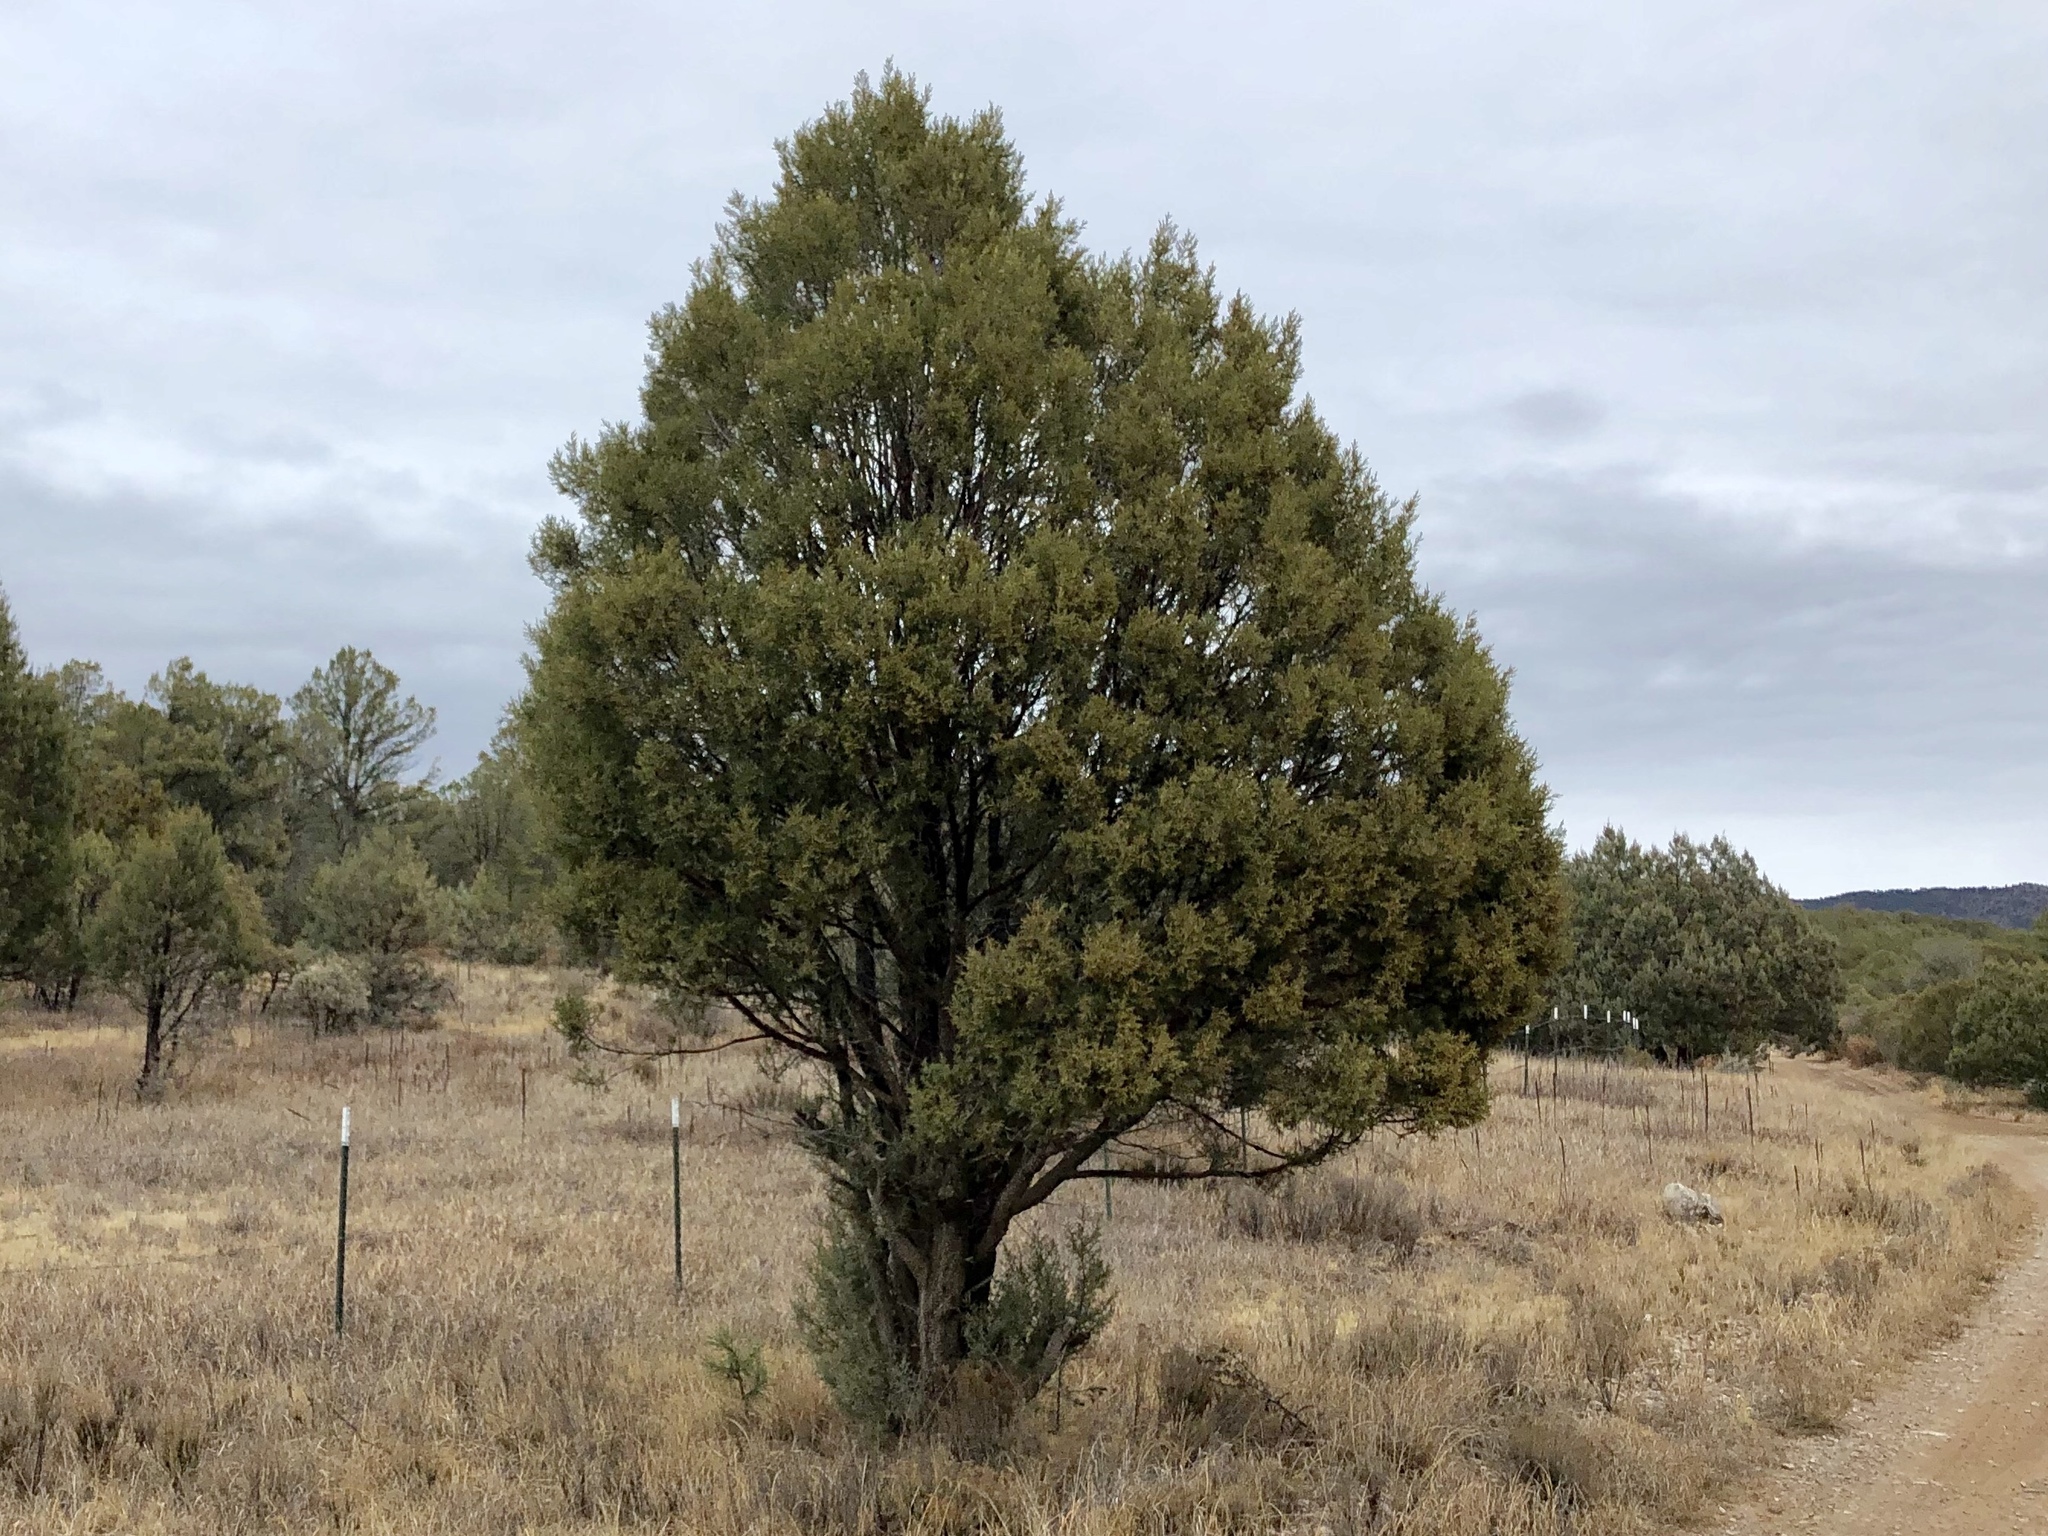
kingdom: Plantae
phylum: Tracheophyta
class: Pinopsida
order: Pinales
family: Cupressaceae
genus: Juniperus
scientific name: Juniperus deppeana
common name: Alligator juniper
